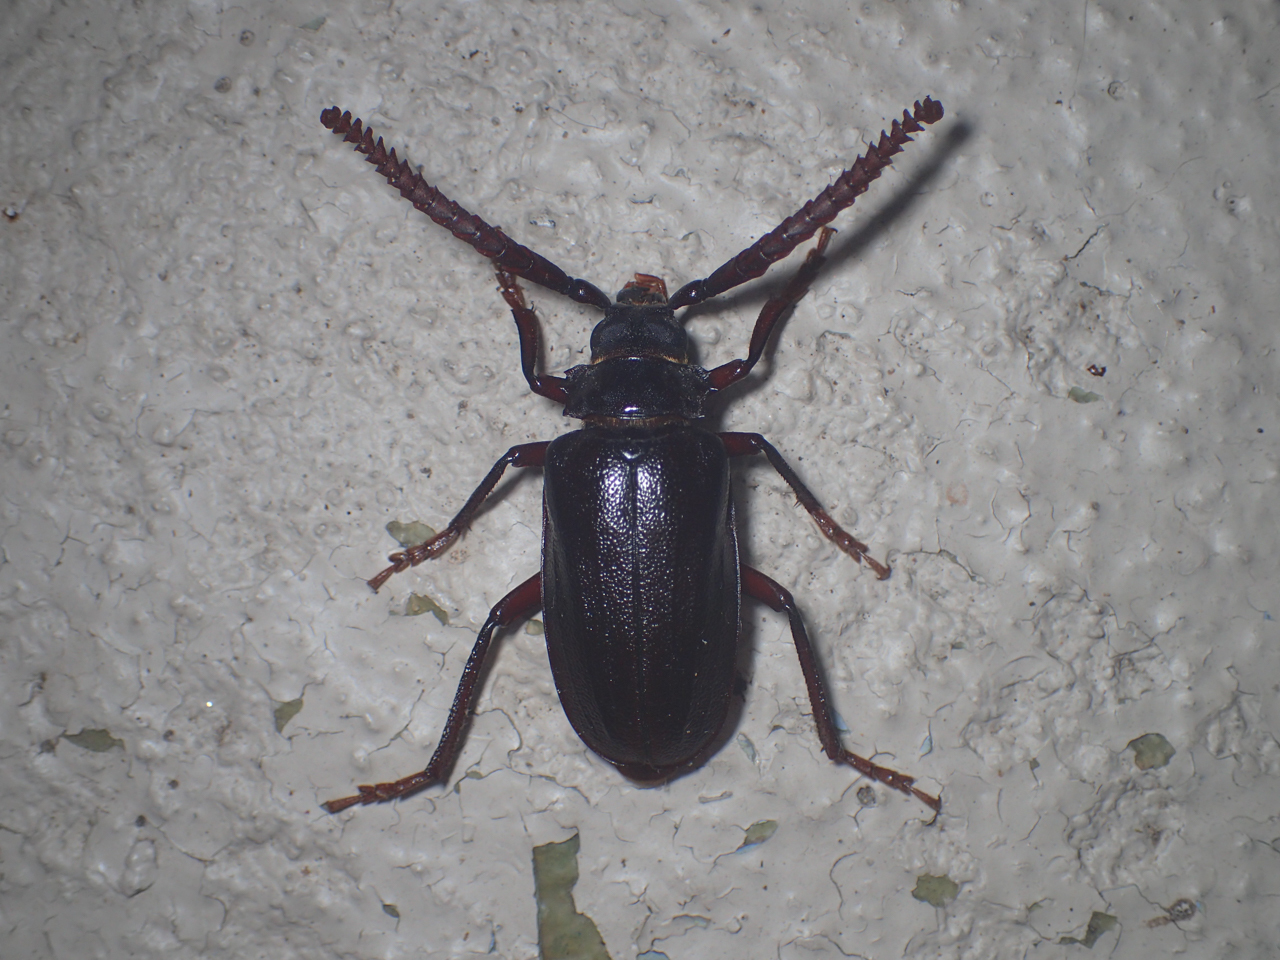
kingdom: Animalia
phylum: Arthropoda
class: Insecta
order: Coleoptera
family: Cerambycidae
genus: Prionus
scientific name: Prionus imbricornis
